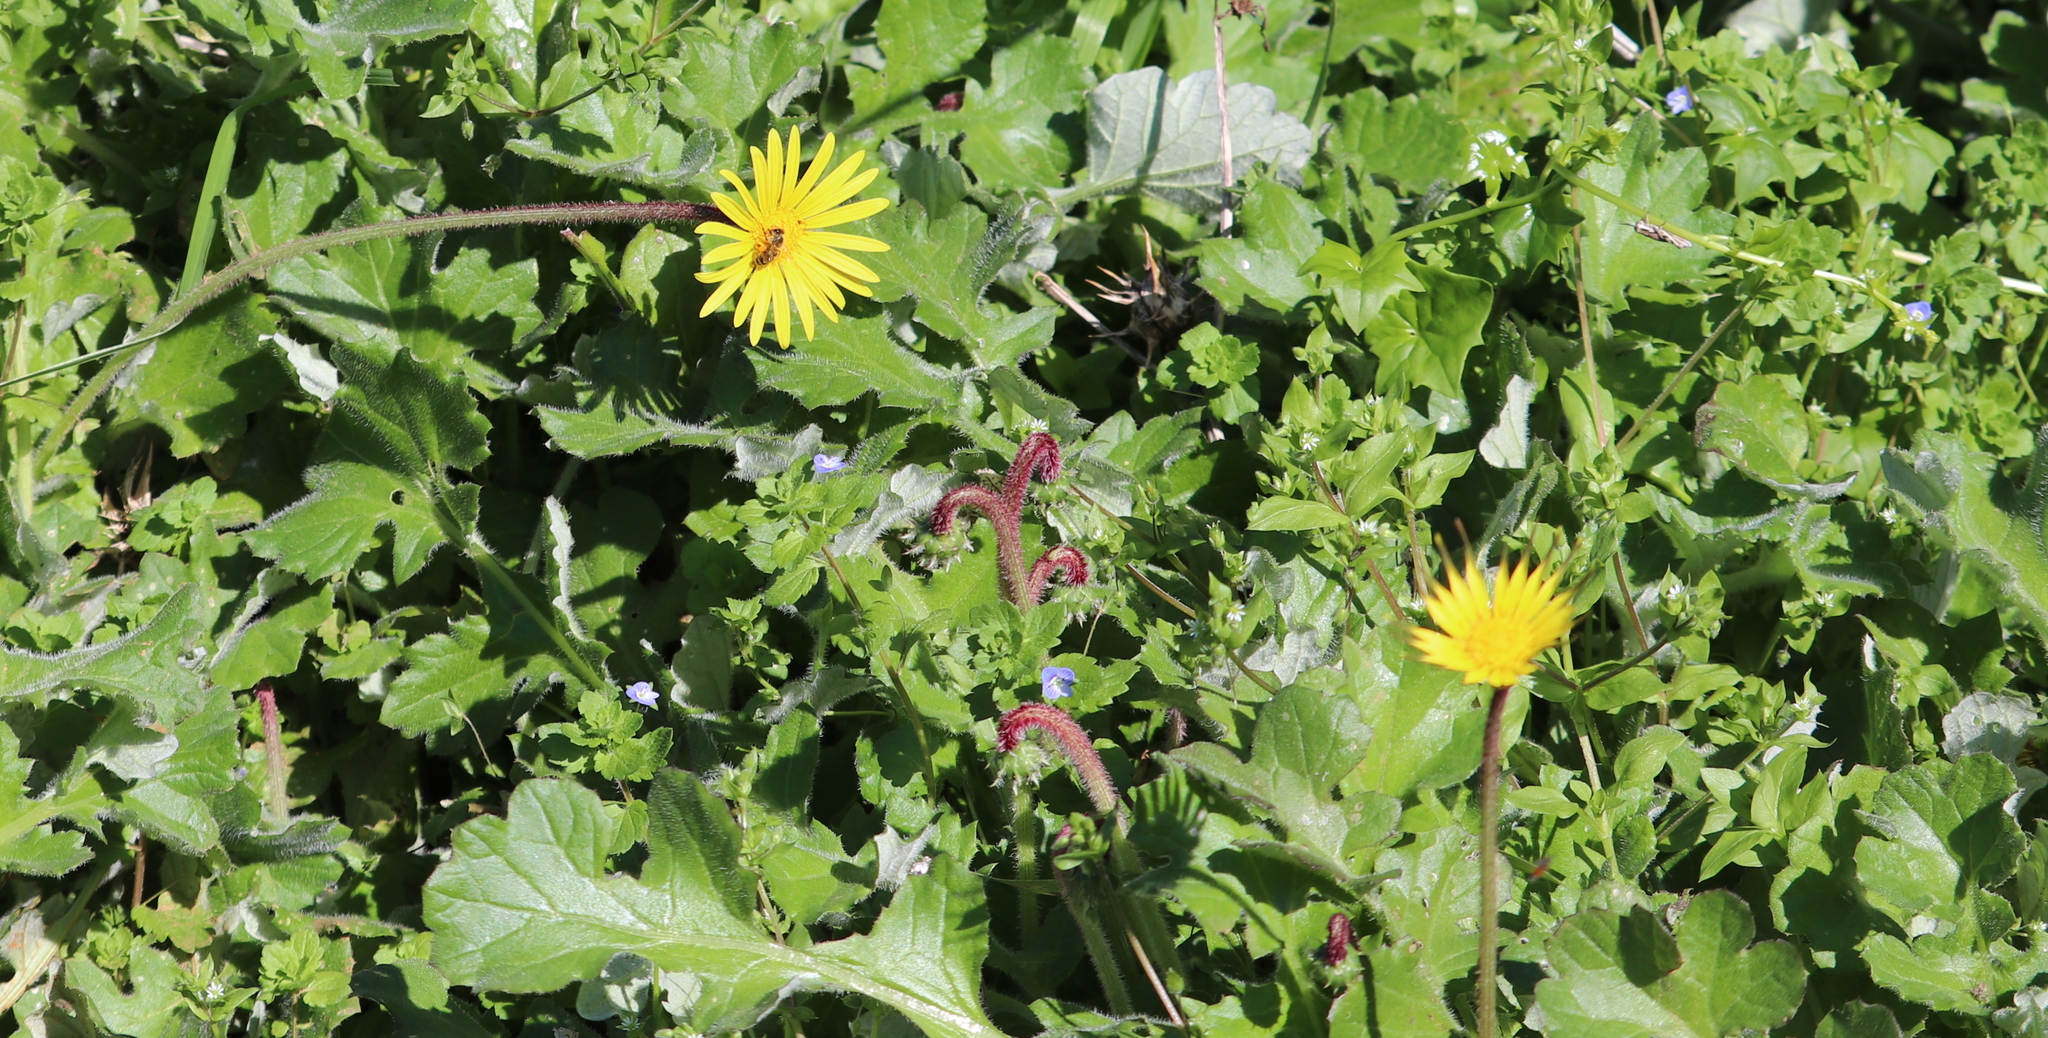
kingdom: Plantae
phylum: Tracheophyta
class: Magnoliopsida
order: Asterales
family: Asteraceae
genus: Arctotheca
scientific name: Arctotheca prostrata
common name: Capeweed
